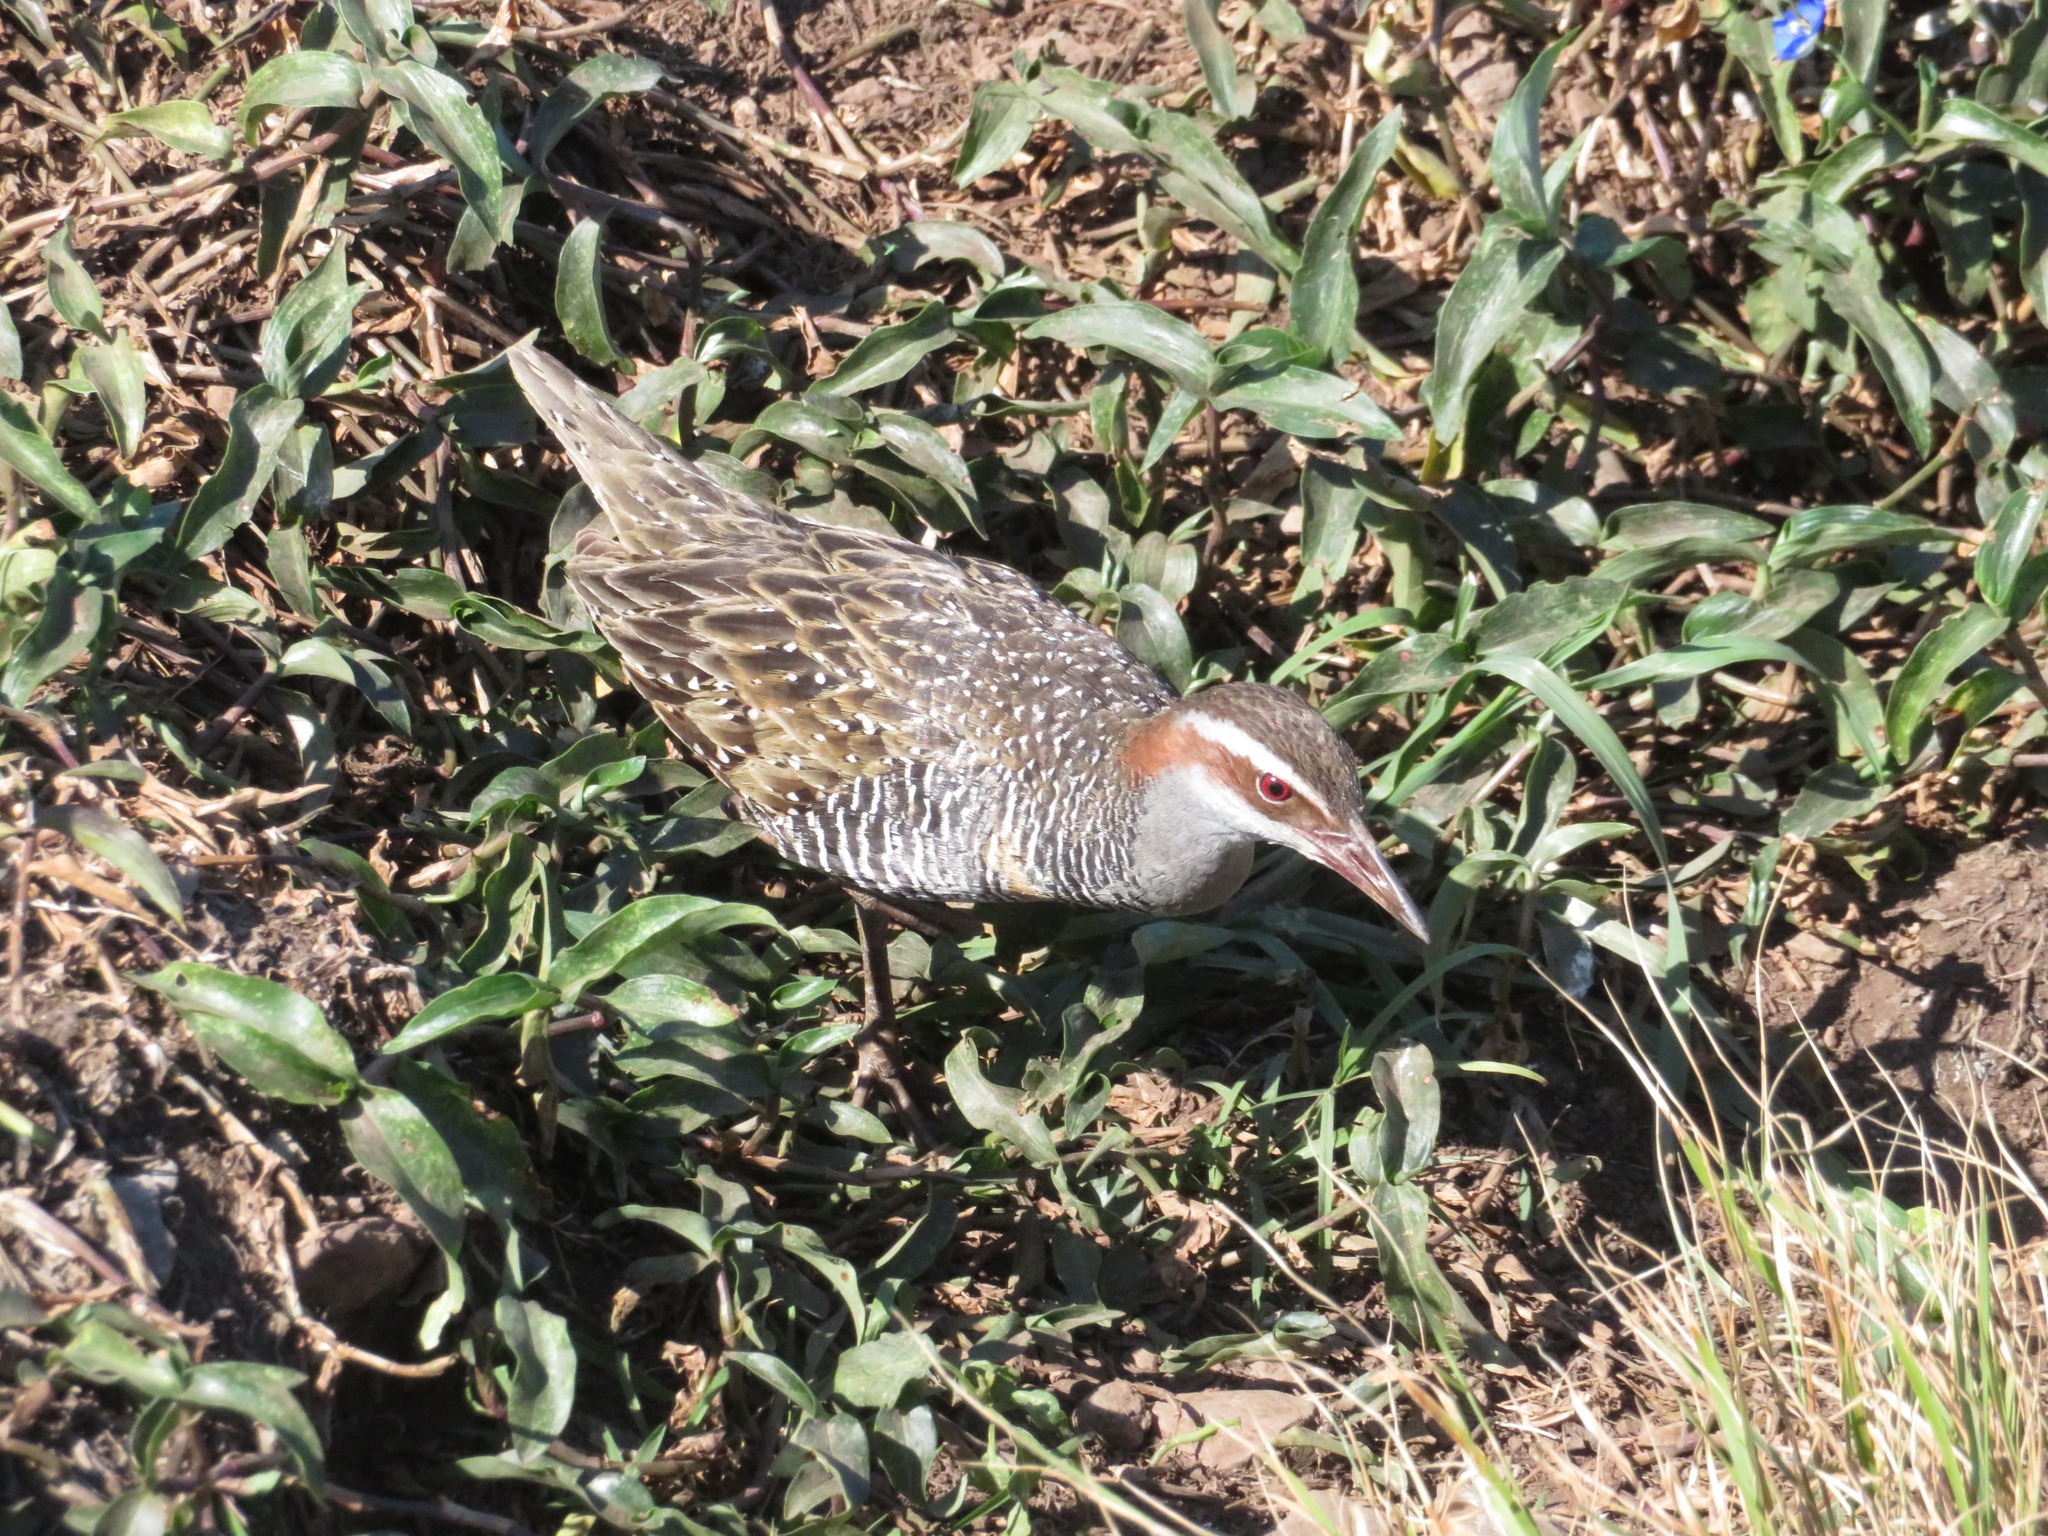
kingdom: Animalia
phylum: Chordata
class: Aves
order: Gruiformes
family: Rallidae
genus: Gallirallus
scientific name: Gallirallus philippensis
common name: Buff-banded rail
